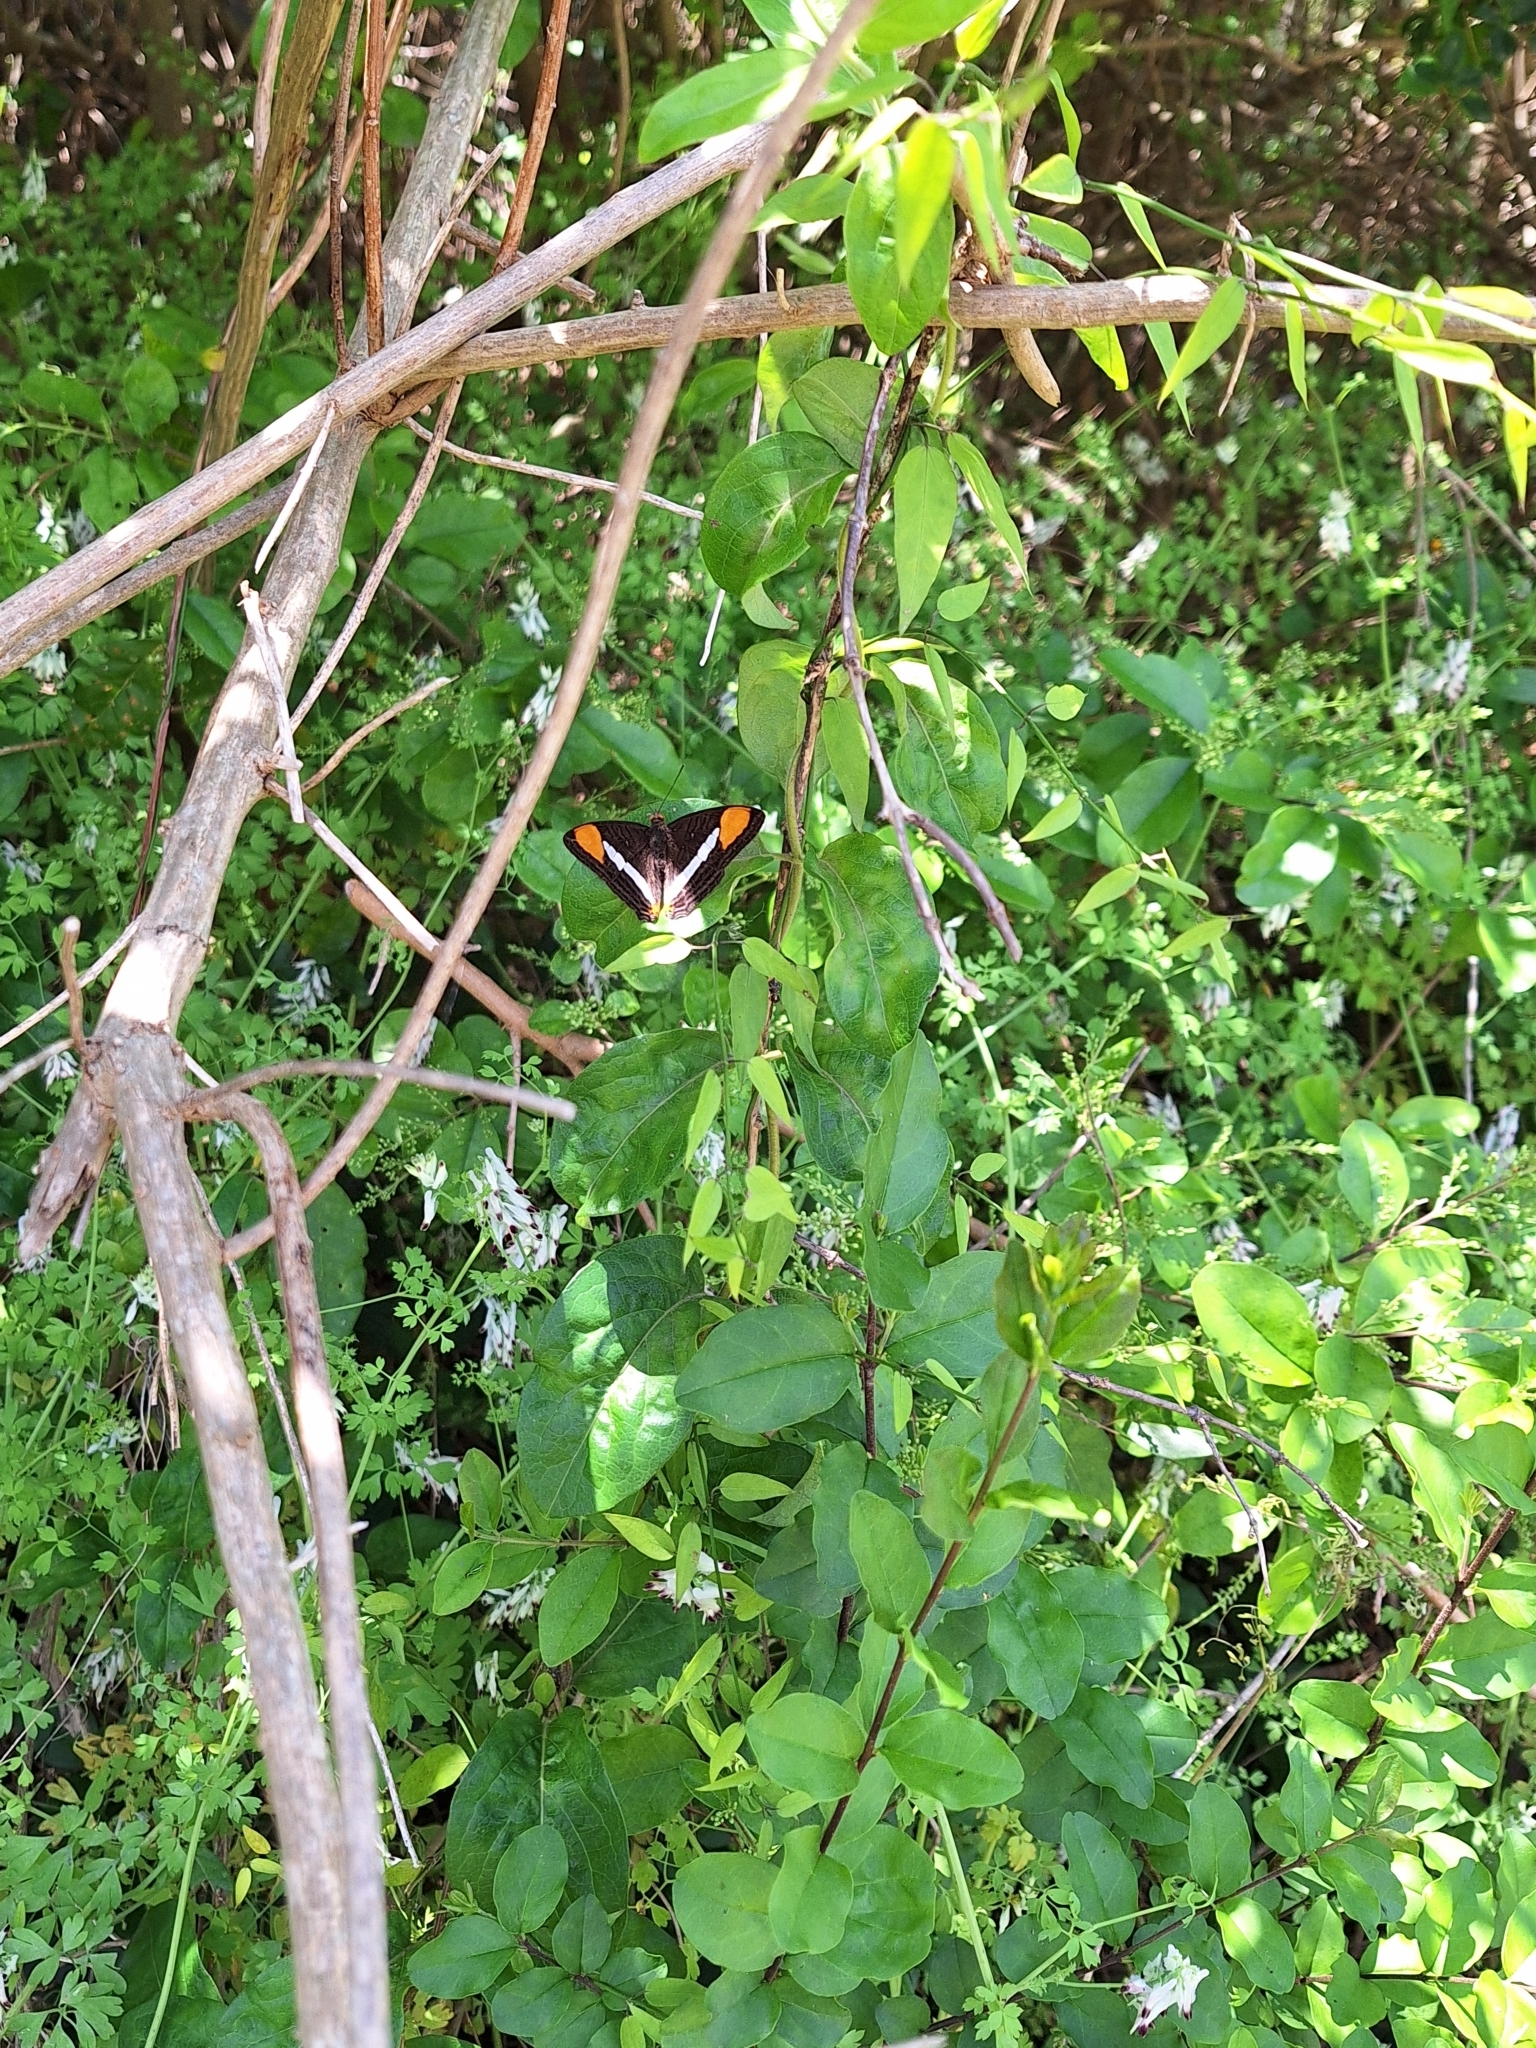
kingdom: Animalia
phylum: Arthropoda
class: Insecta
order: Lepidoptera
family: Nymphalidae
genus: Limenitis
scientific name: Limenitis syma
